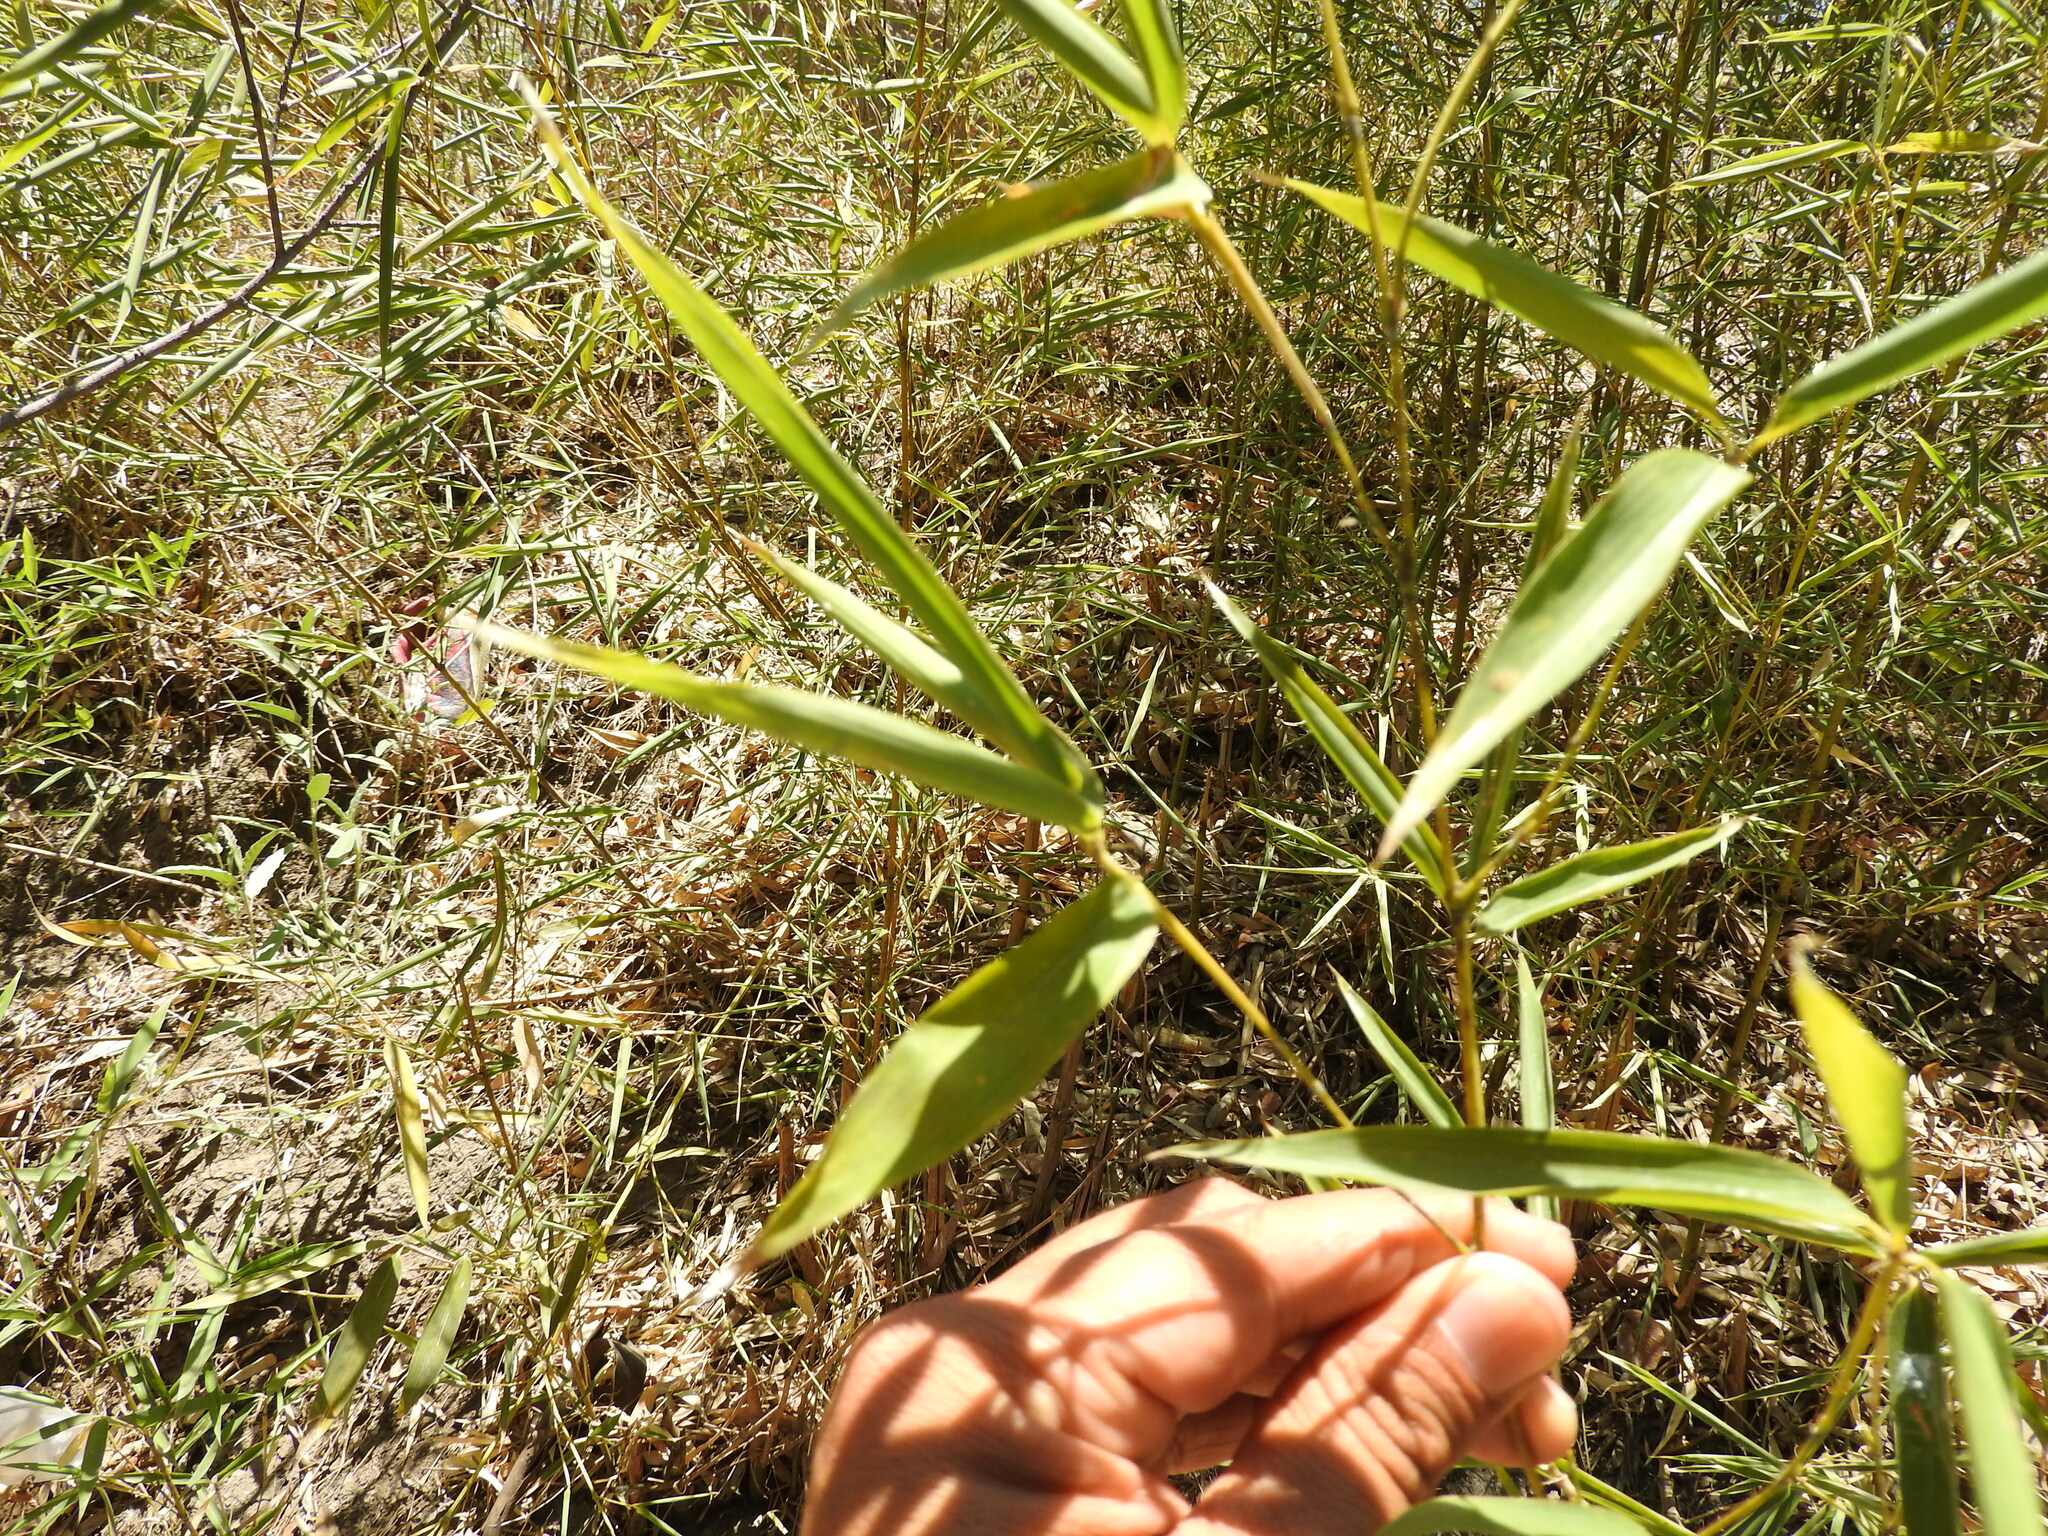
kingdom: Plantae
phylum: Tracheophyta
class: Liliopsida
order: Poales
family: Poaceae
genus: Phyllostachys
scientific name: Phyllostachys aurea
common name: Golden bamboo
